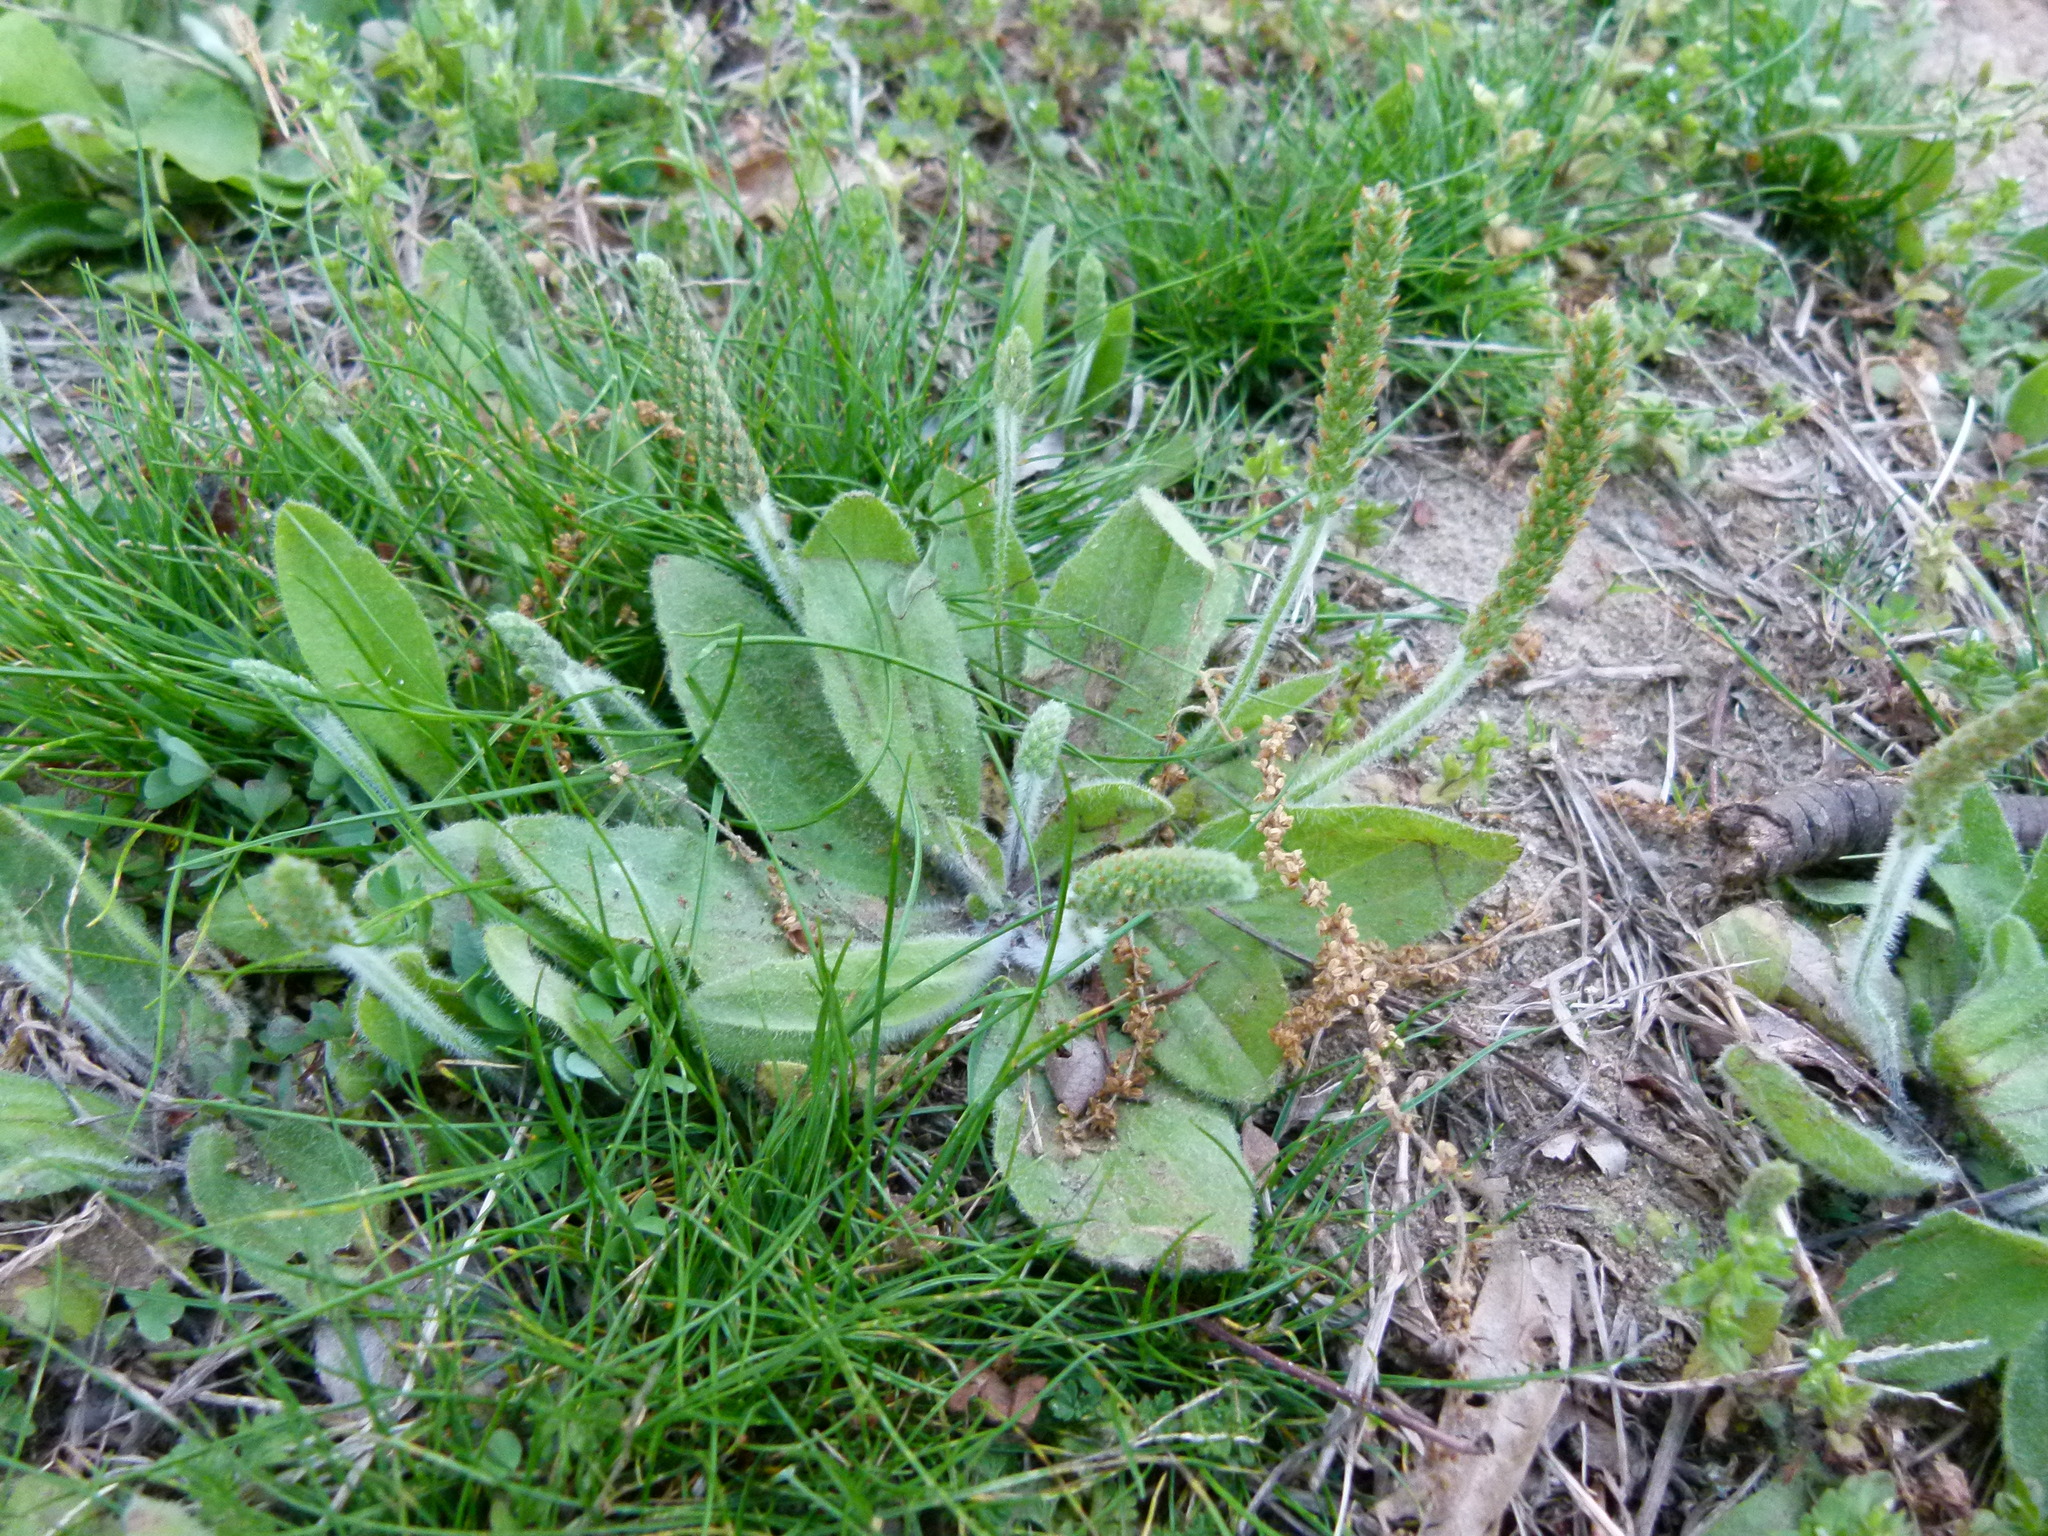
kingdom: Plantae
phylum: Tracheophyta
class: Magnoliopsida
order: Lamiales
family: Plantaginaceae
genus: Plantago
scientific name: Plantago virginica
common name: Hoary plantain
